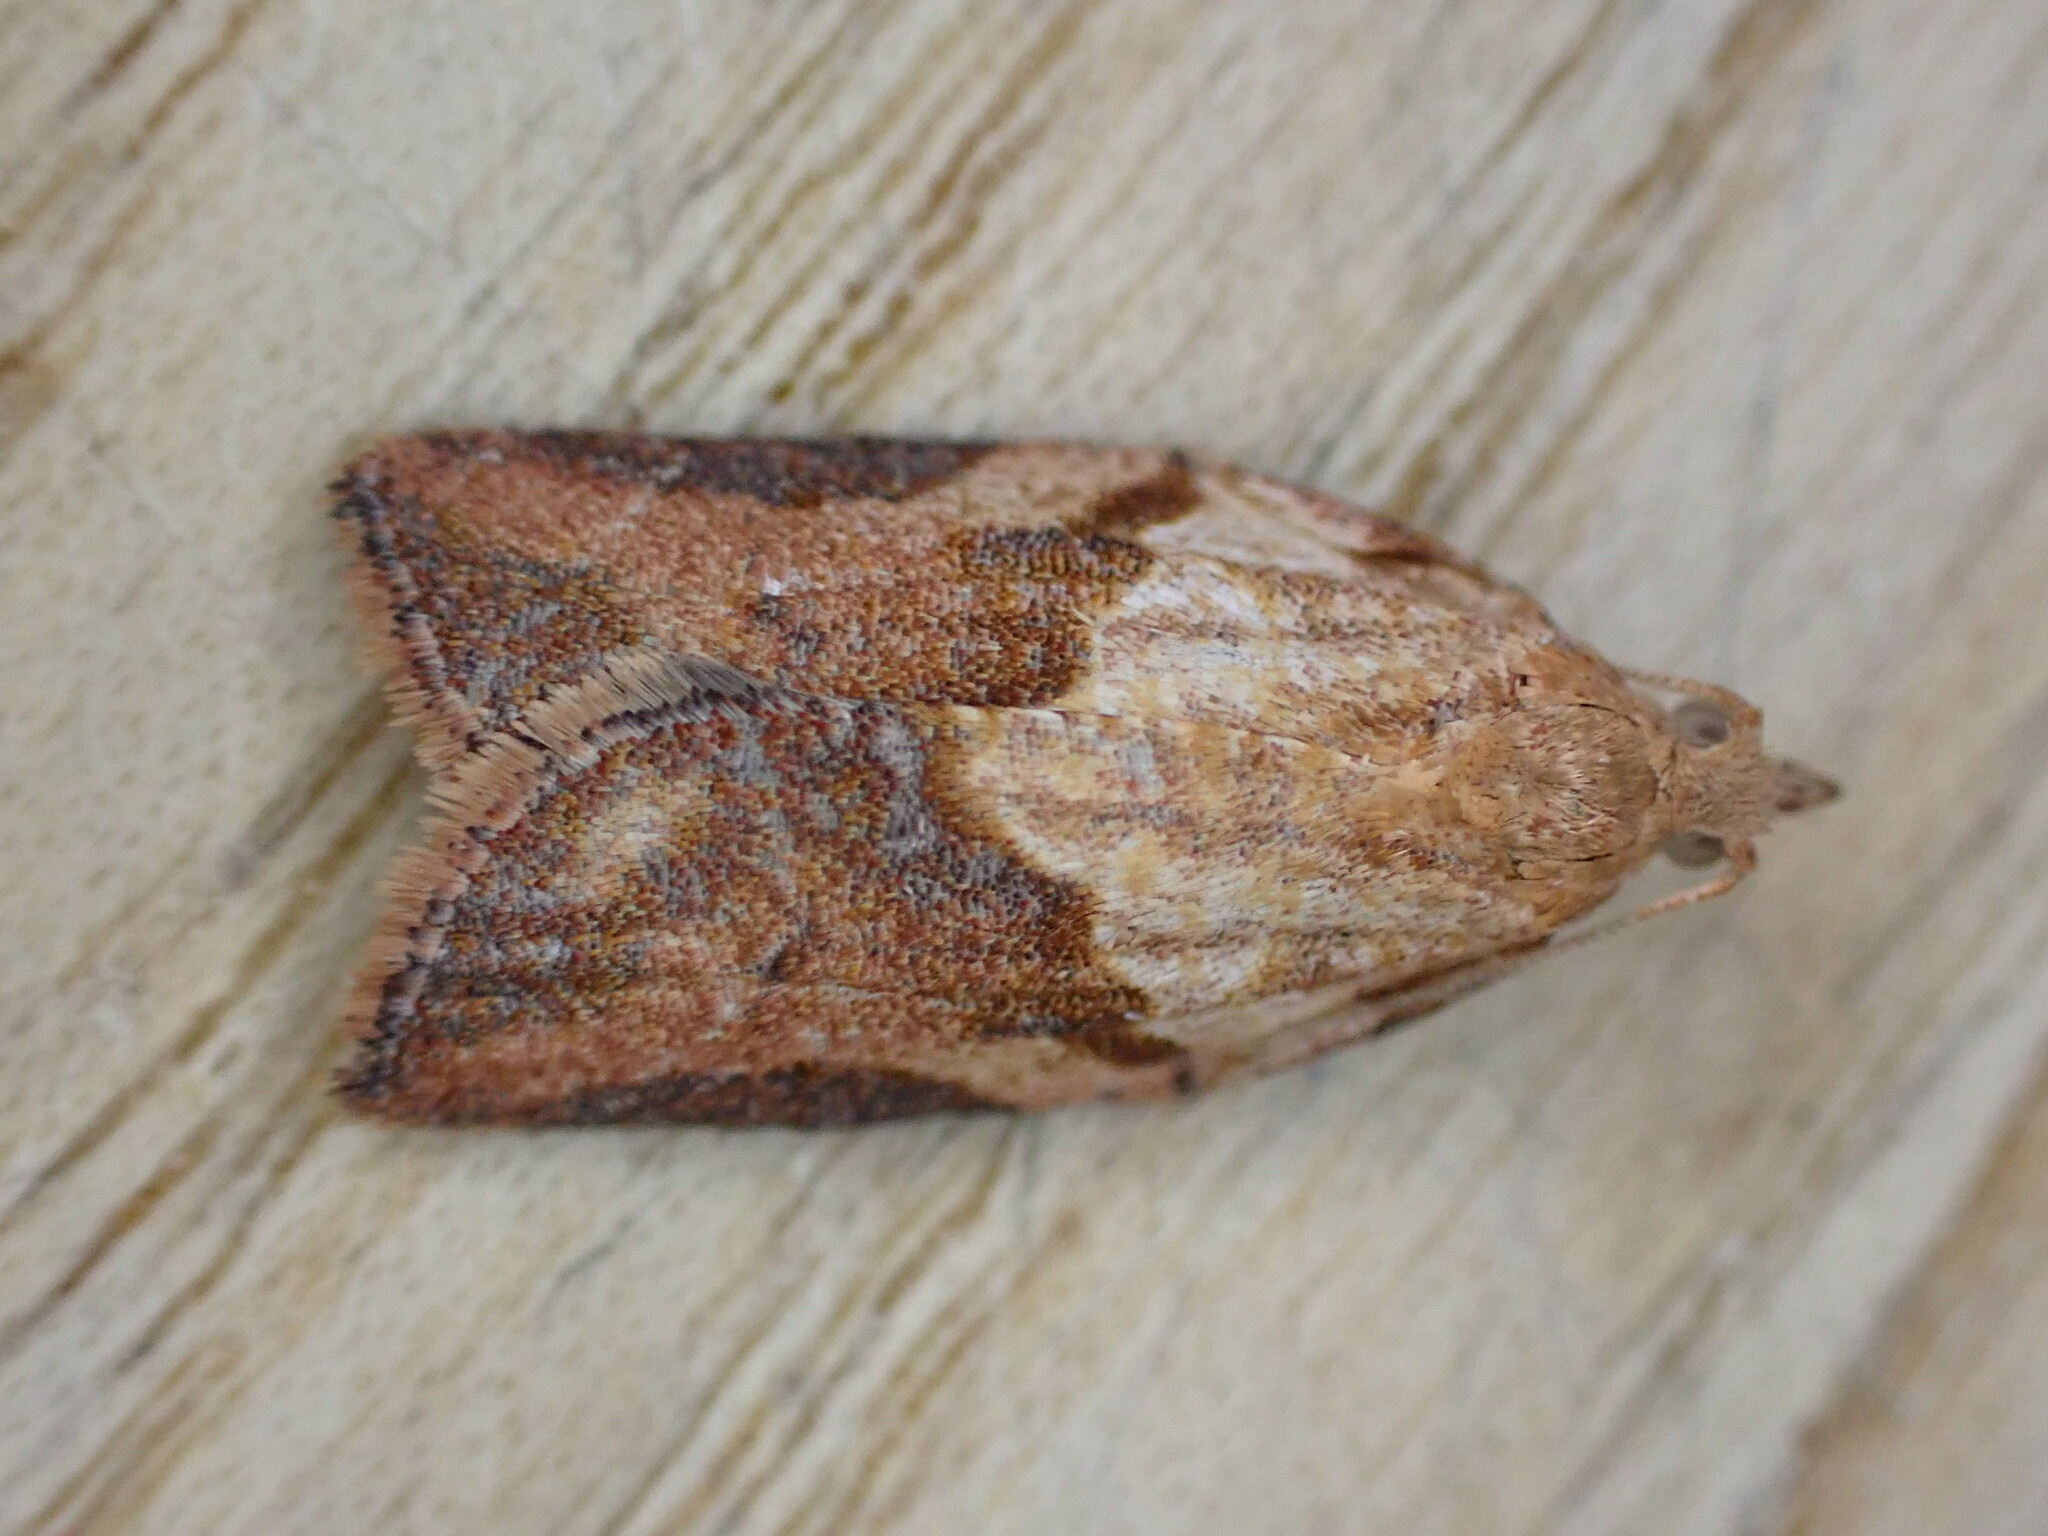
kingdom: Animalia
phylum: Arthropoda
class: Insecta
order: Lepidoptera
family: Tortricidae
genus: Epiphyas
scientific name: Epiphyas postvittana
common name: Light brown apple moth
